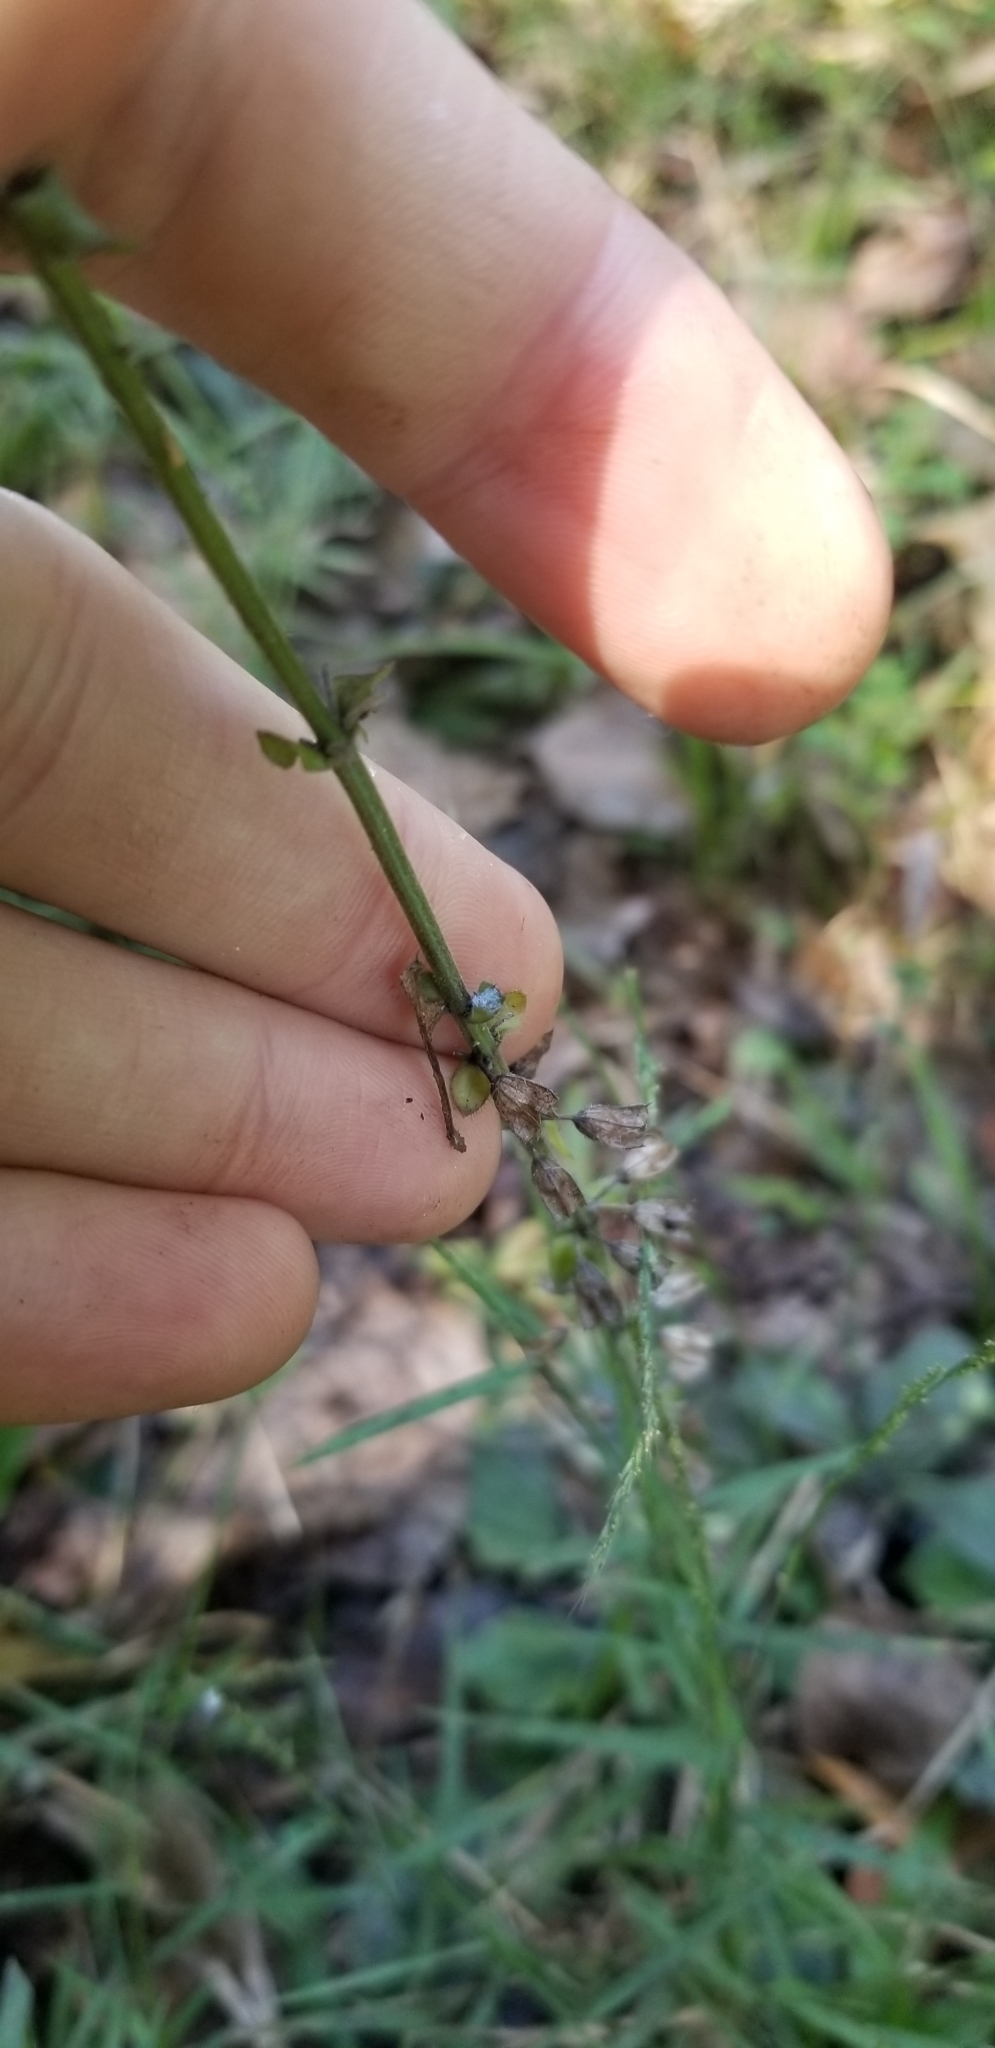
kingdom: Plantae
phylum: Tracheophyta
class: Magnoliopsida
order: Lamiales
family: Lamiaceae
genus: Salvia
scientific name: Salvia lyrata
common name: Cancerweed
